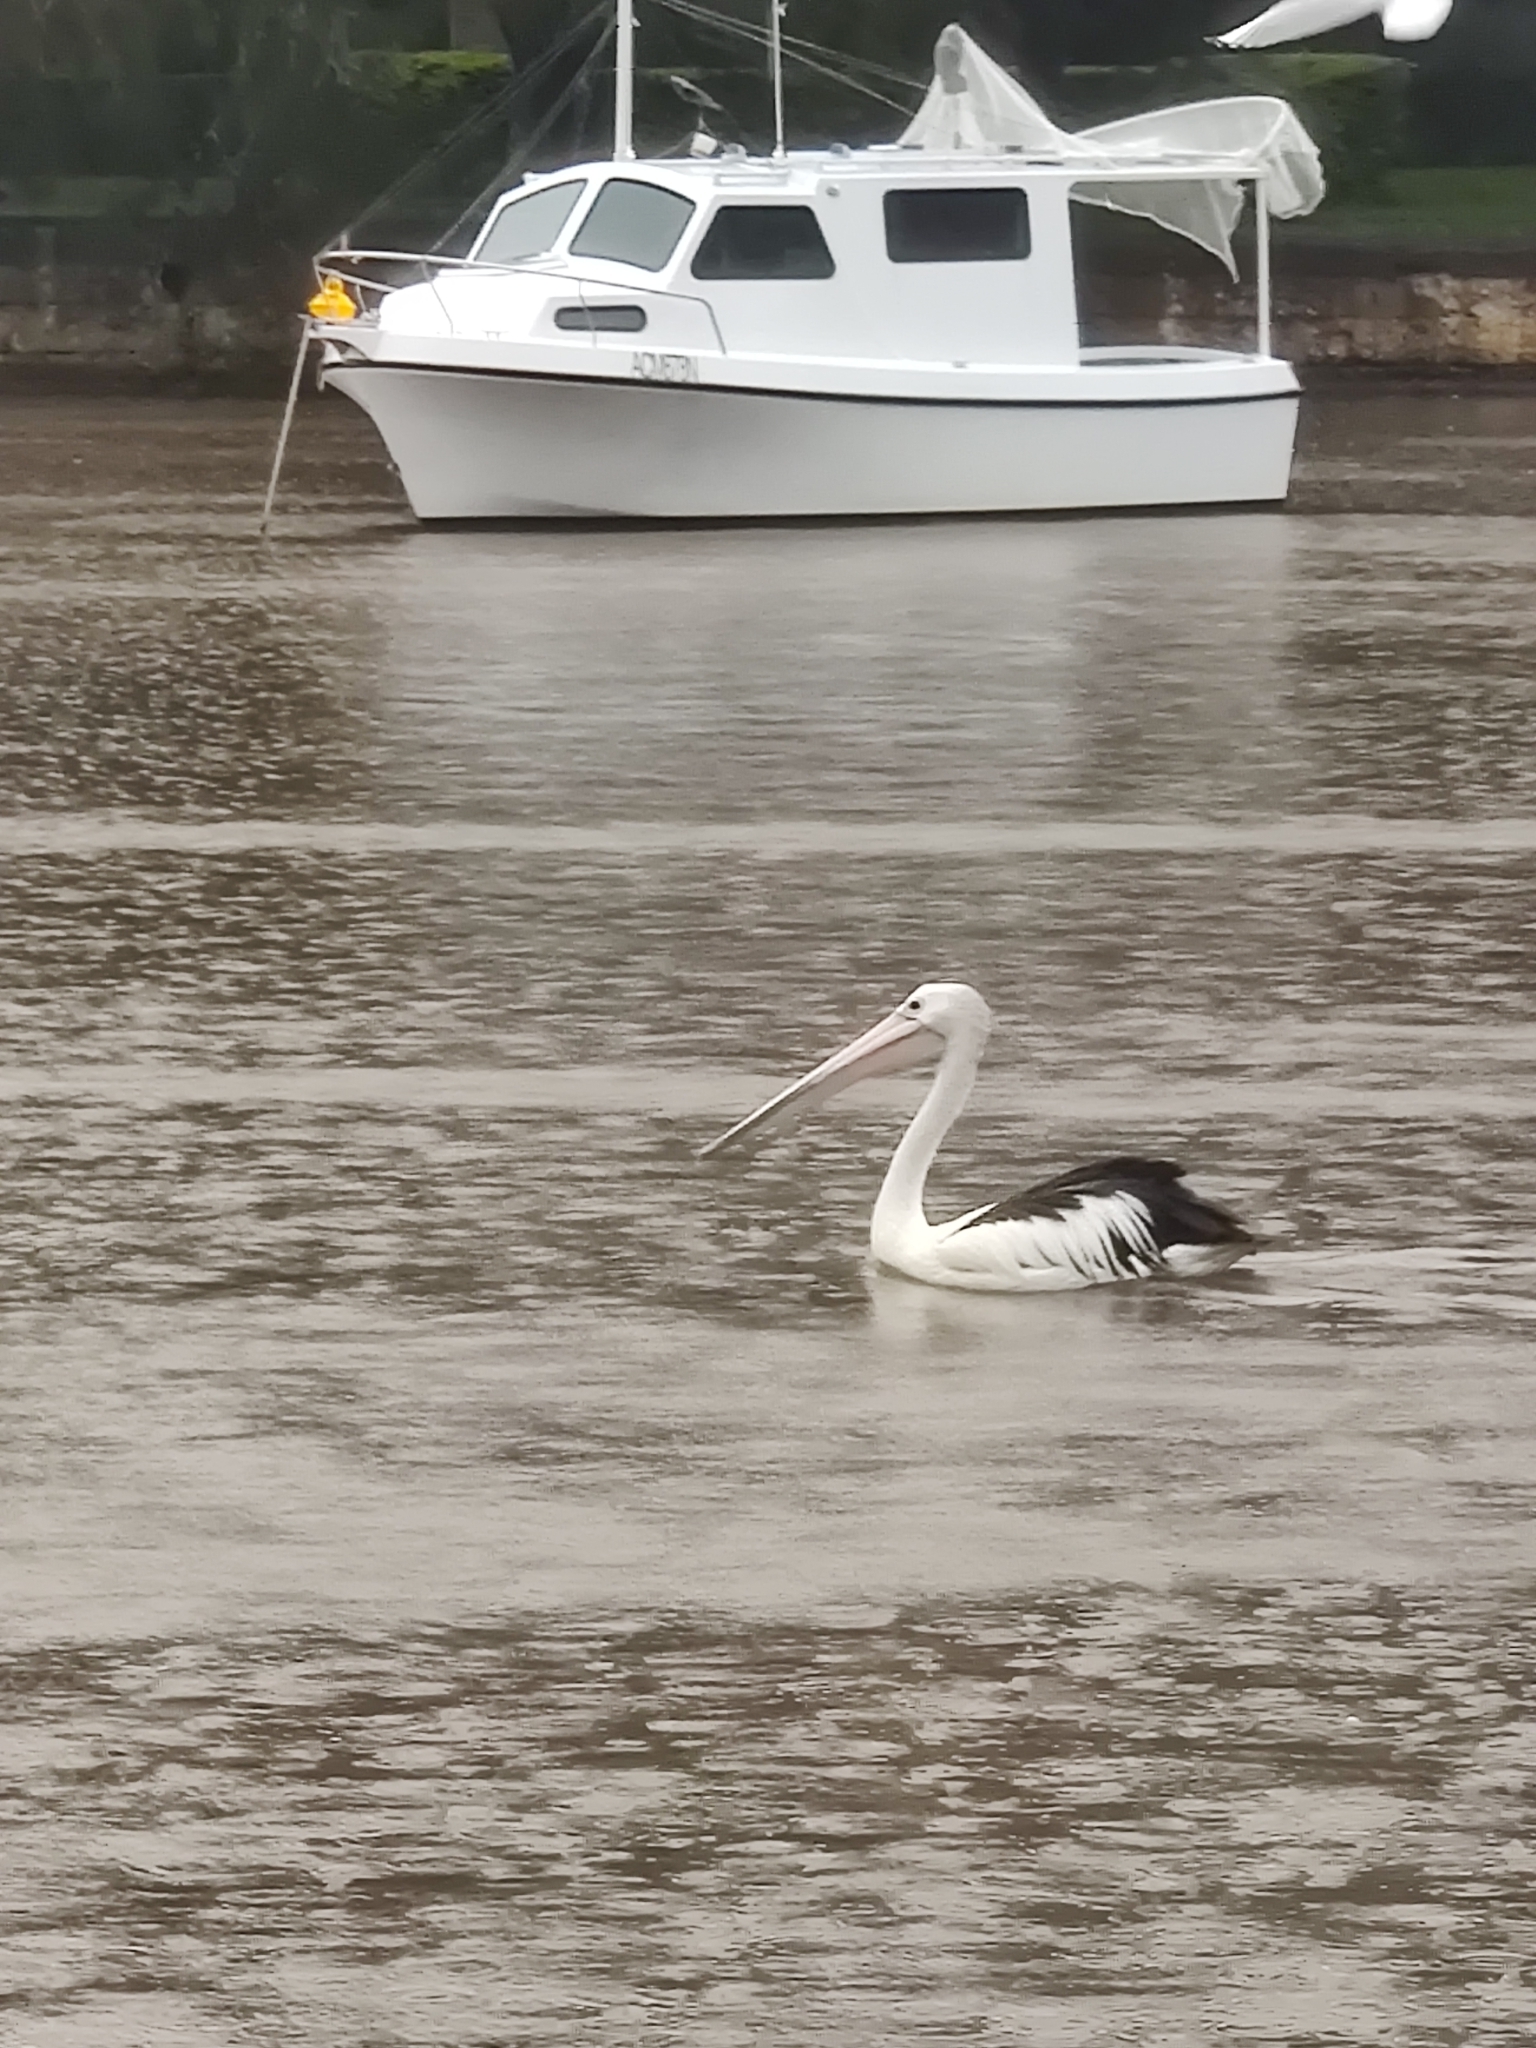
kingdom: Animalia
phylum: Chordata
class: Aves
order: Pelecaniformes
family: Pelecanidae
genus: Pelecanus
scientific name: Pelecanus conspicillatus
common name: Australian pelican
